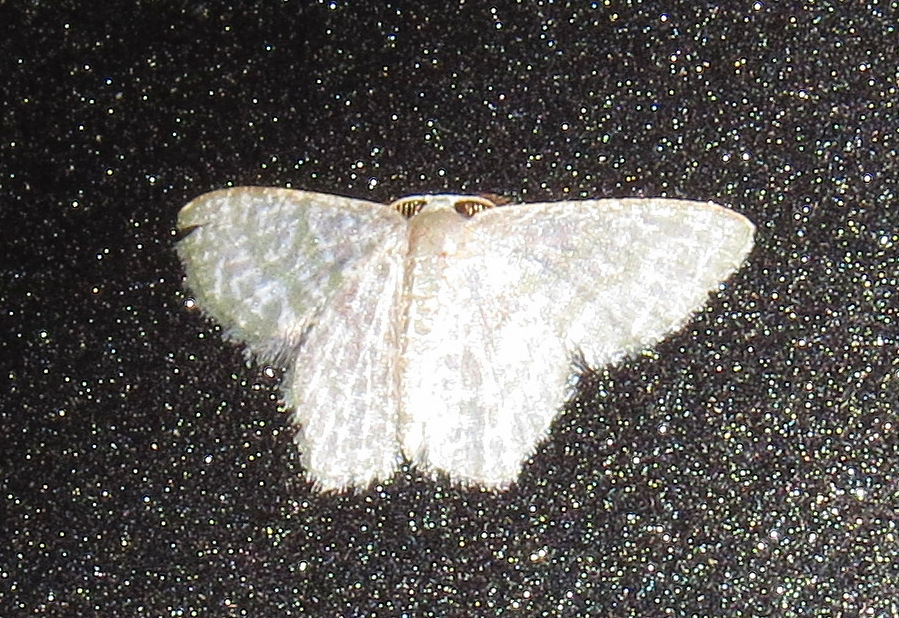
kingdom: Animalia
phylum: Arthropoda
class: Insecta
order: Lepidoptera
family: Geometridae
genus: Chloropteryx
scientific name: Chloropteryx opalaria
